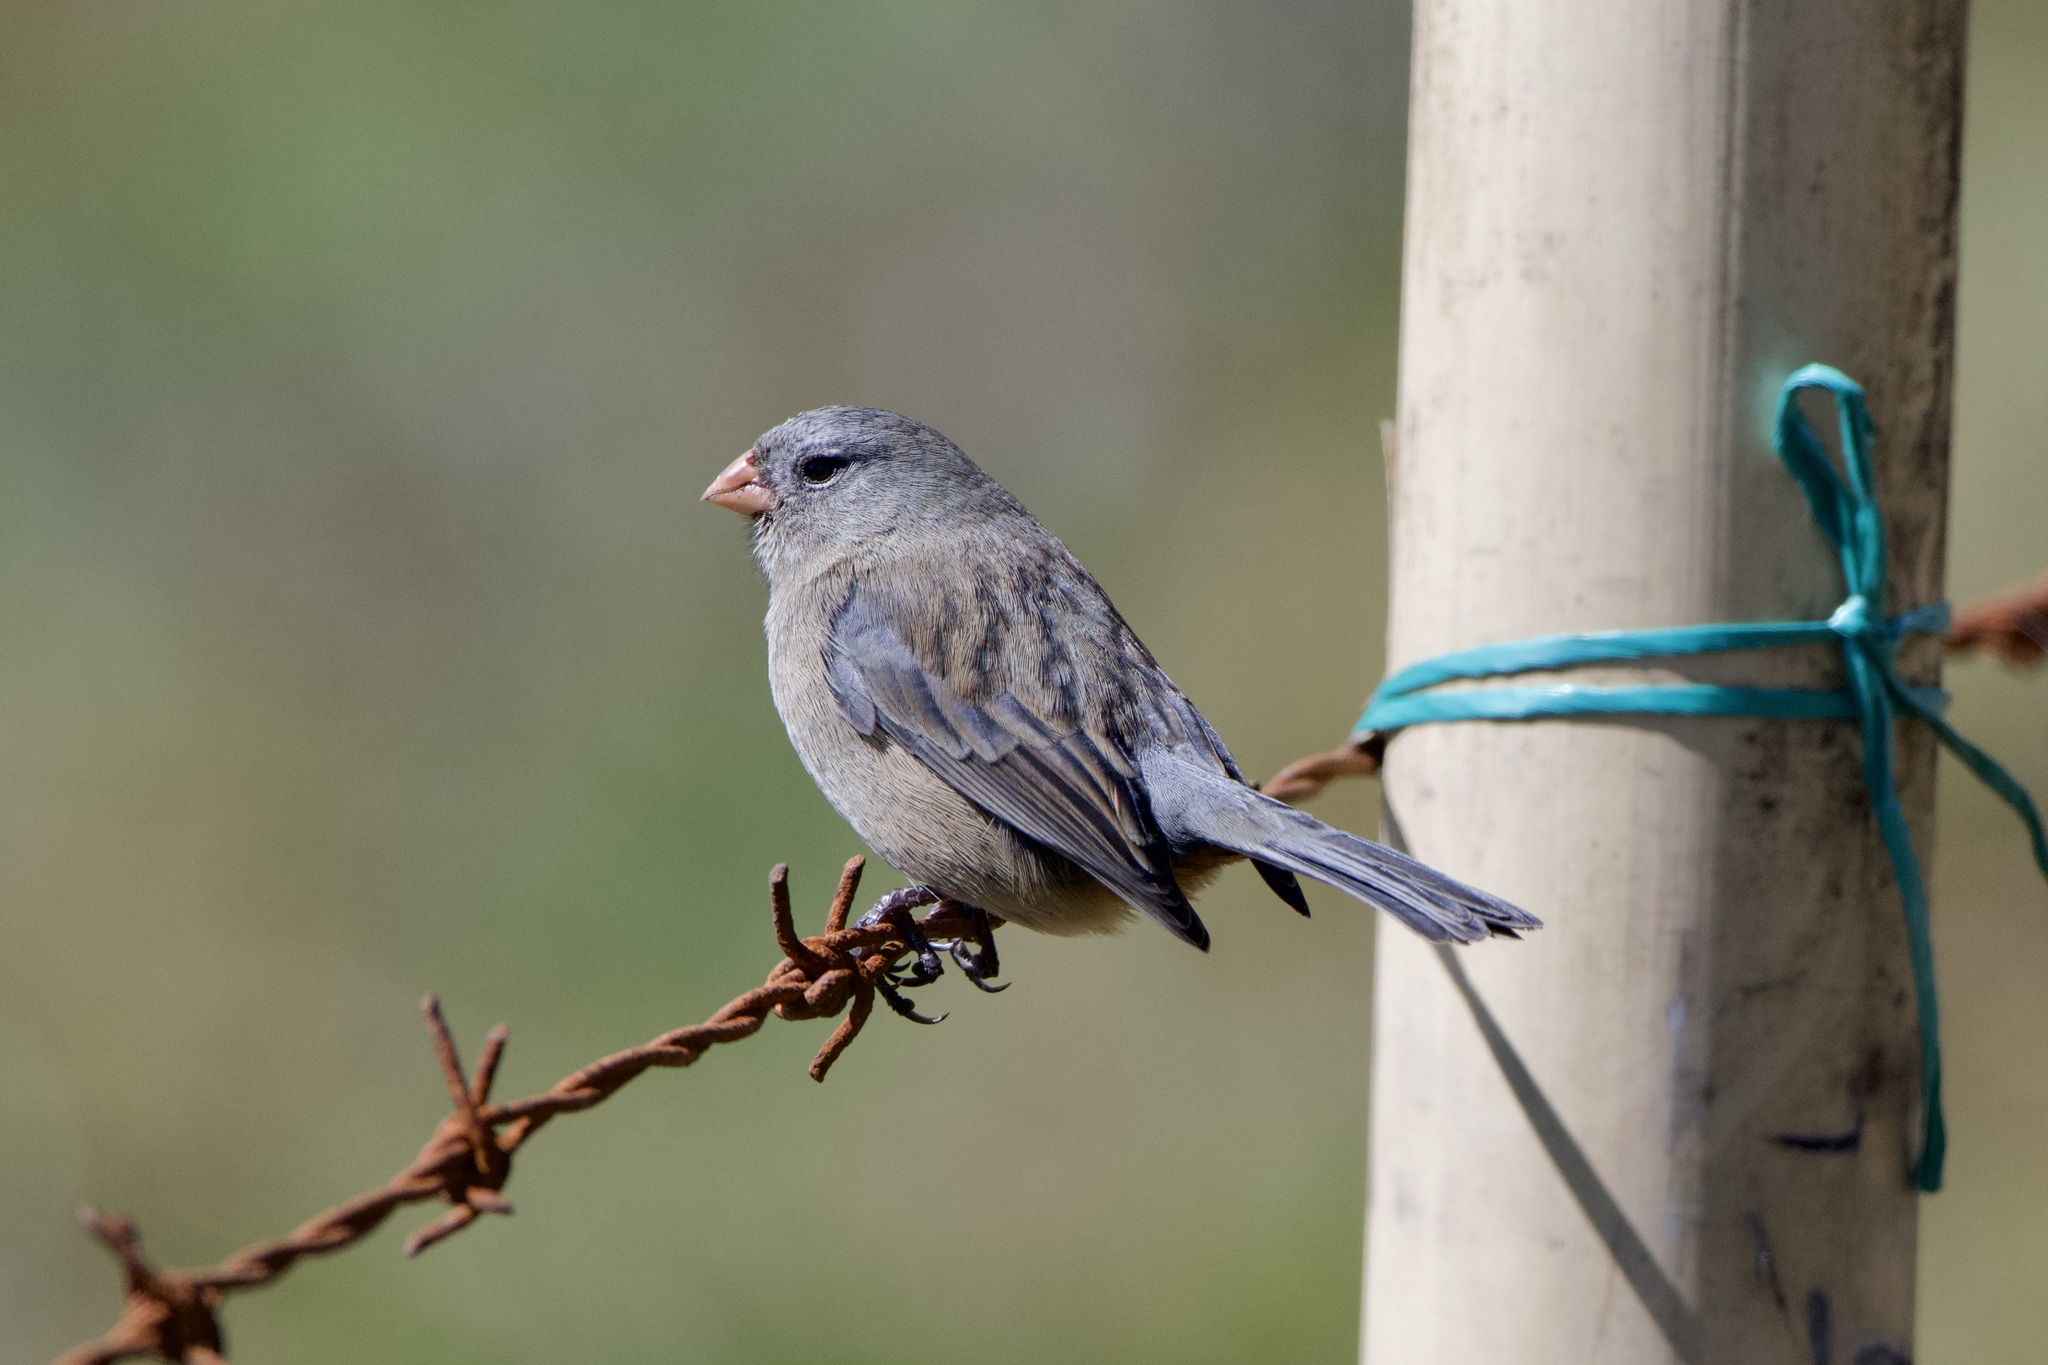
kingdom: Animalia
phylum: Chordata
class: Aves
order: Passeriformes
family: Thraupidae
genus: Catamenia
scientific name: Catamenia inornata
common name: Plain-colored seedeater
